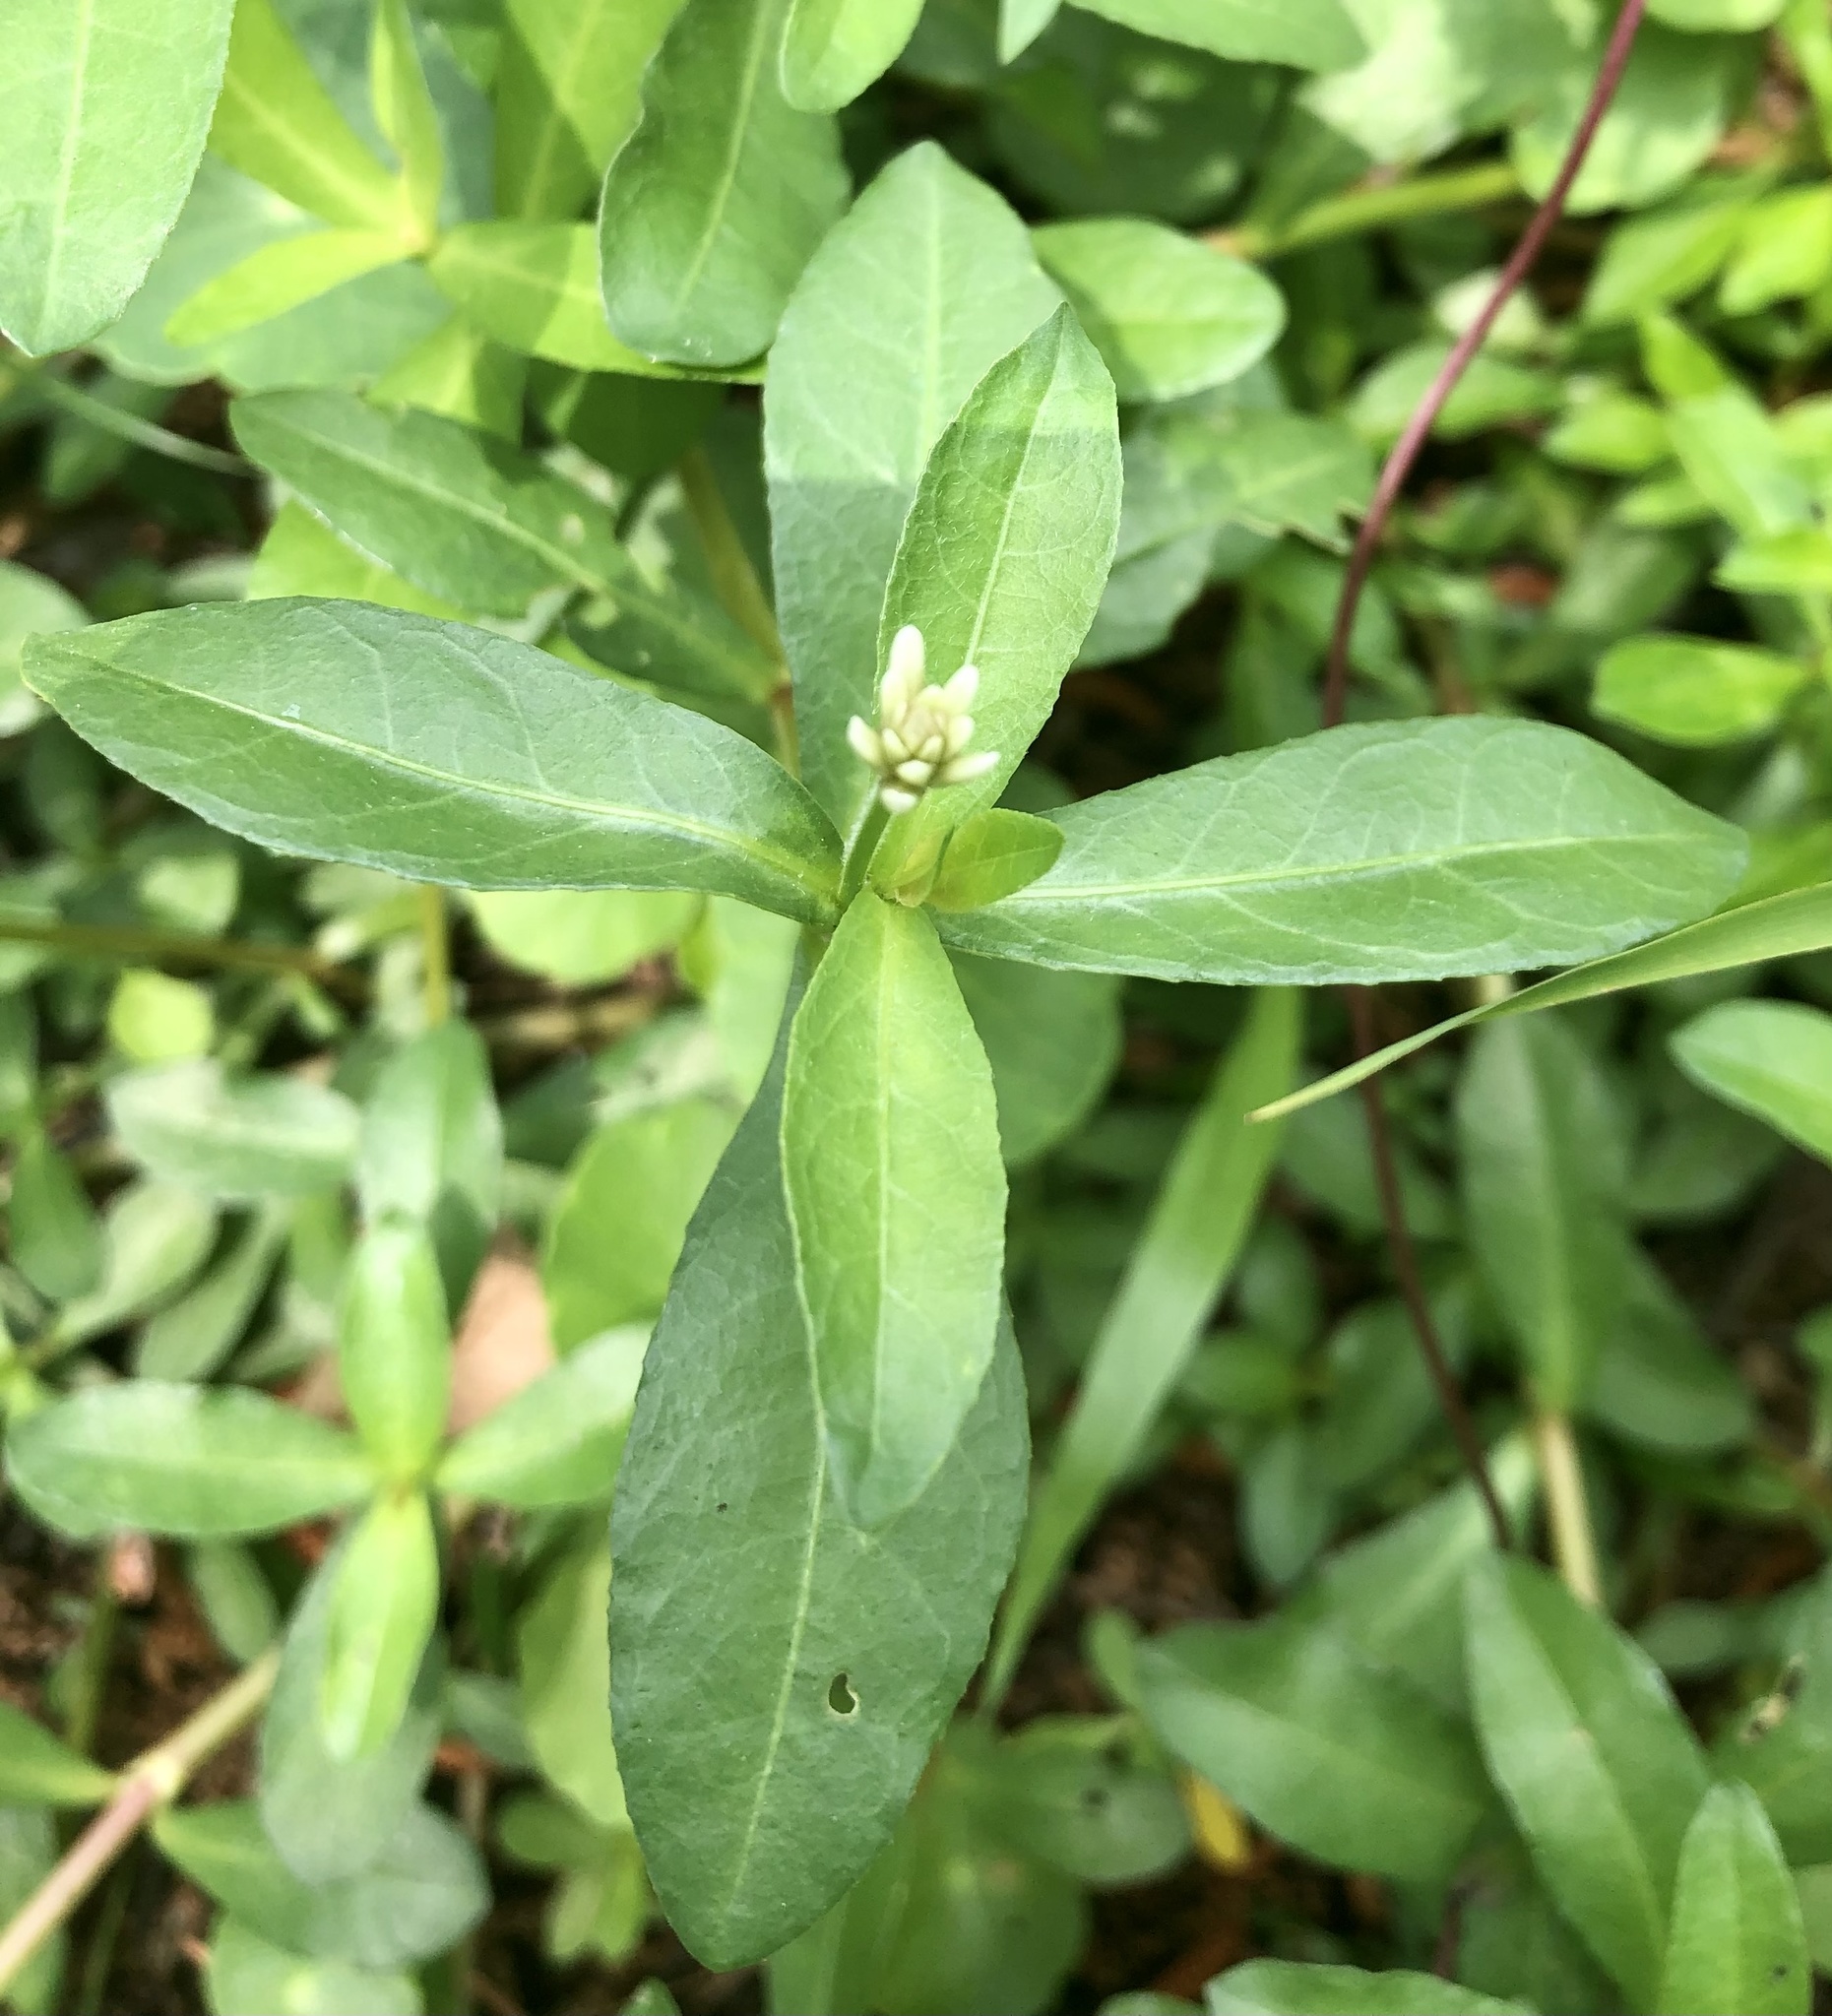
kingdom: Plantae
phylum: Tracheophyta
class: Magnoliopsida
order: Caryophyllales
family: Amaranthaceae
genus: Alternanthera
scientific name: Alternanthera philoxeroides
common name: Alligatorweed
